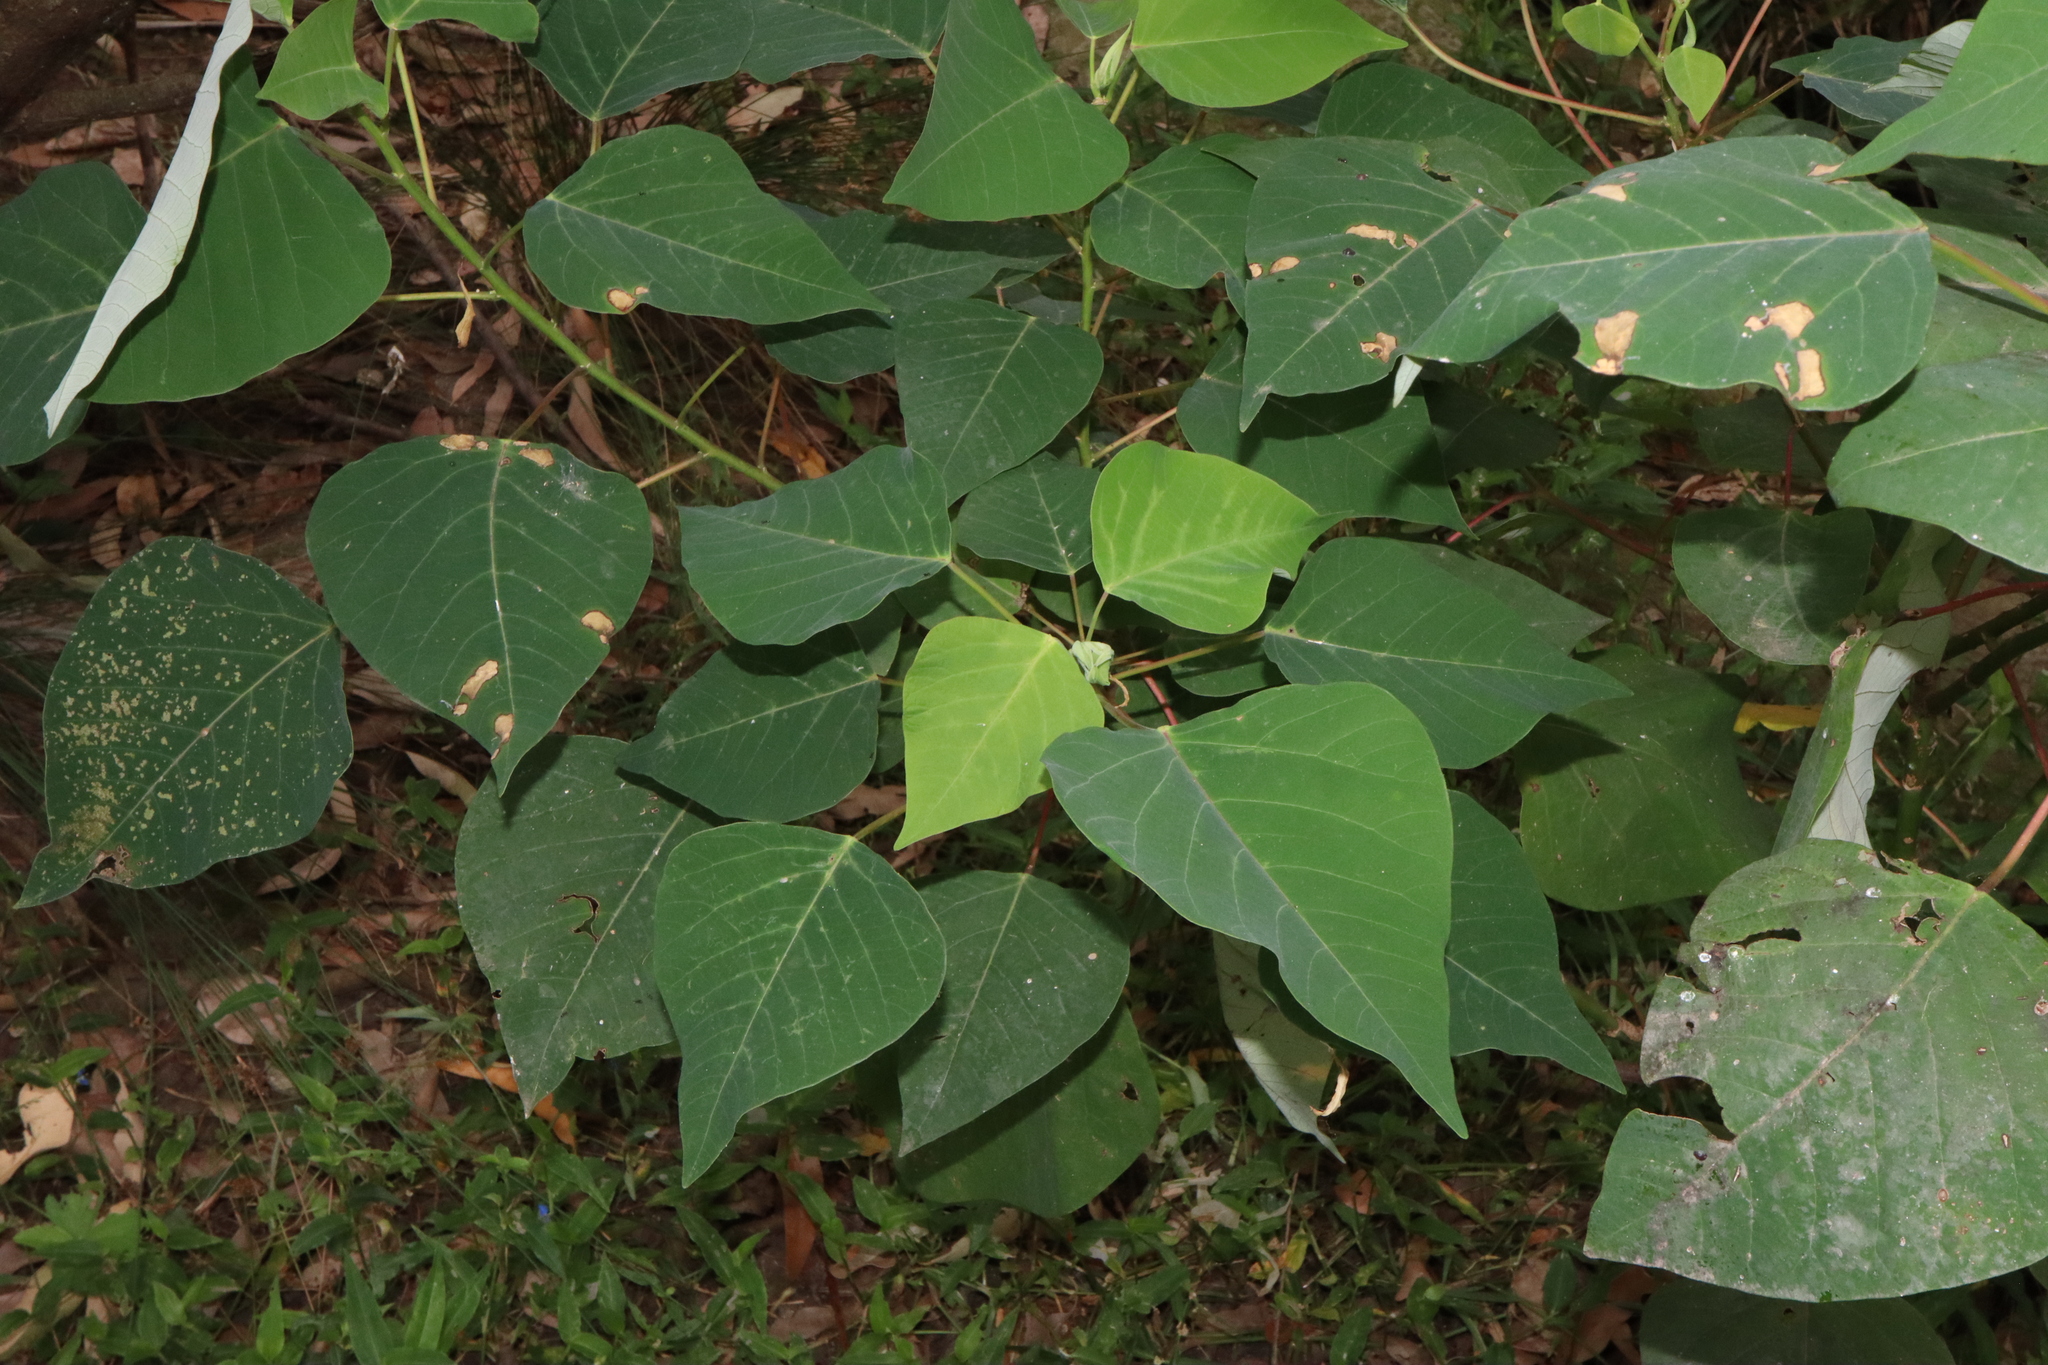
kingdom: Plantae
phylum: Tracheophyta
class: Magnoliopsida
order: Malpighiales
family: Euphorbiaceae
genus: Homalanthus
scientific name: Homalanthus populifolius
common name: Queensland poplar
